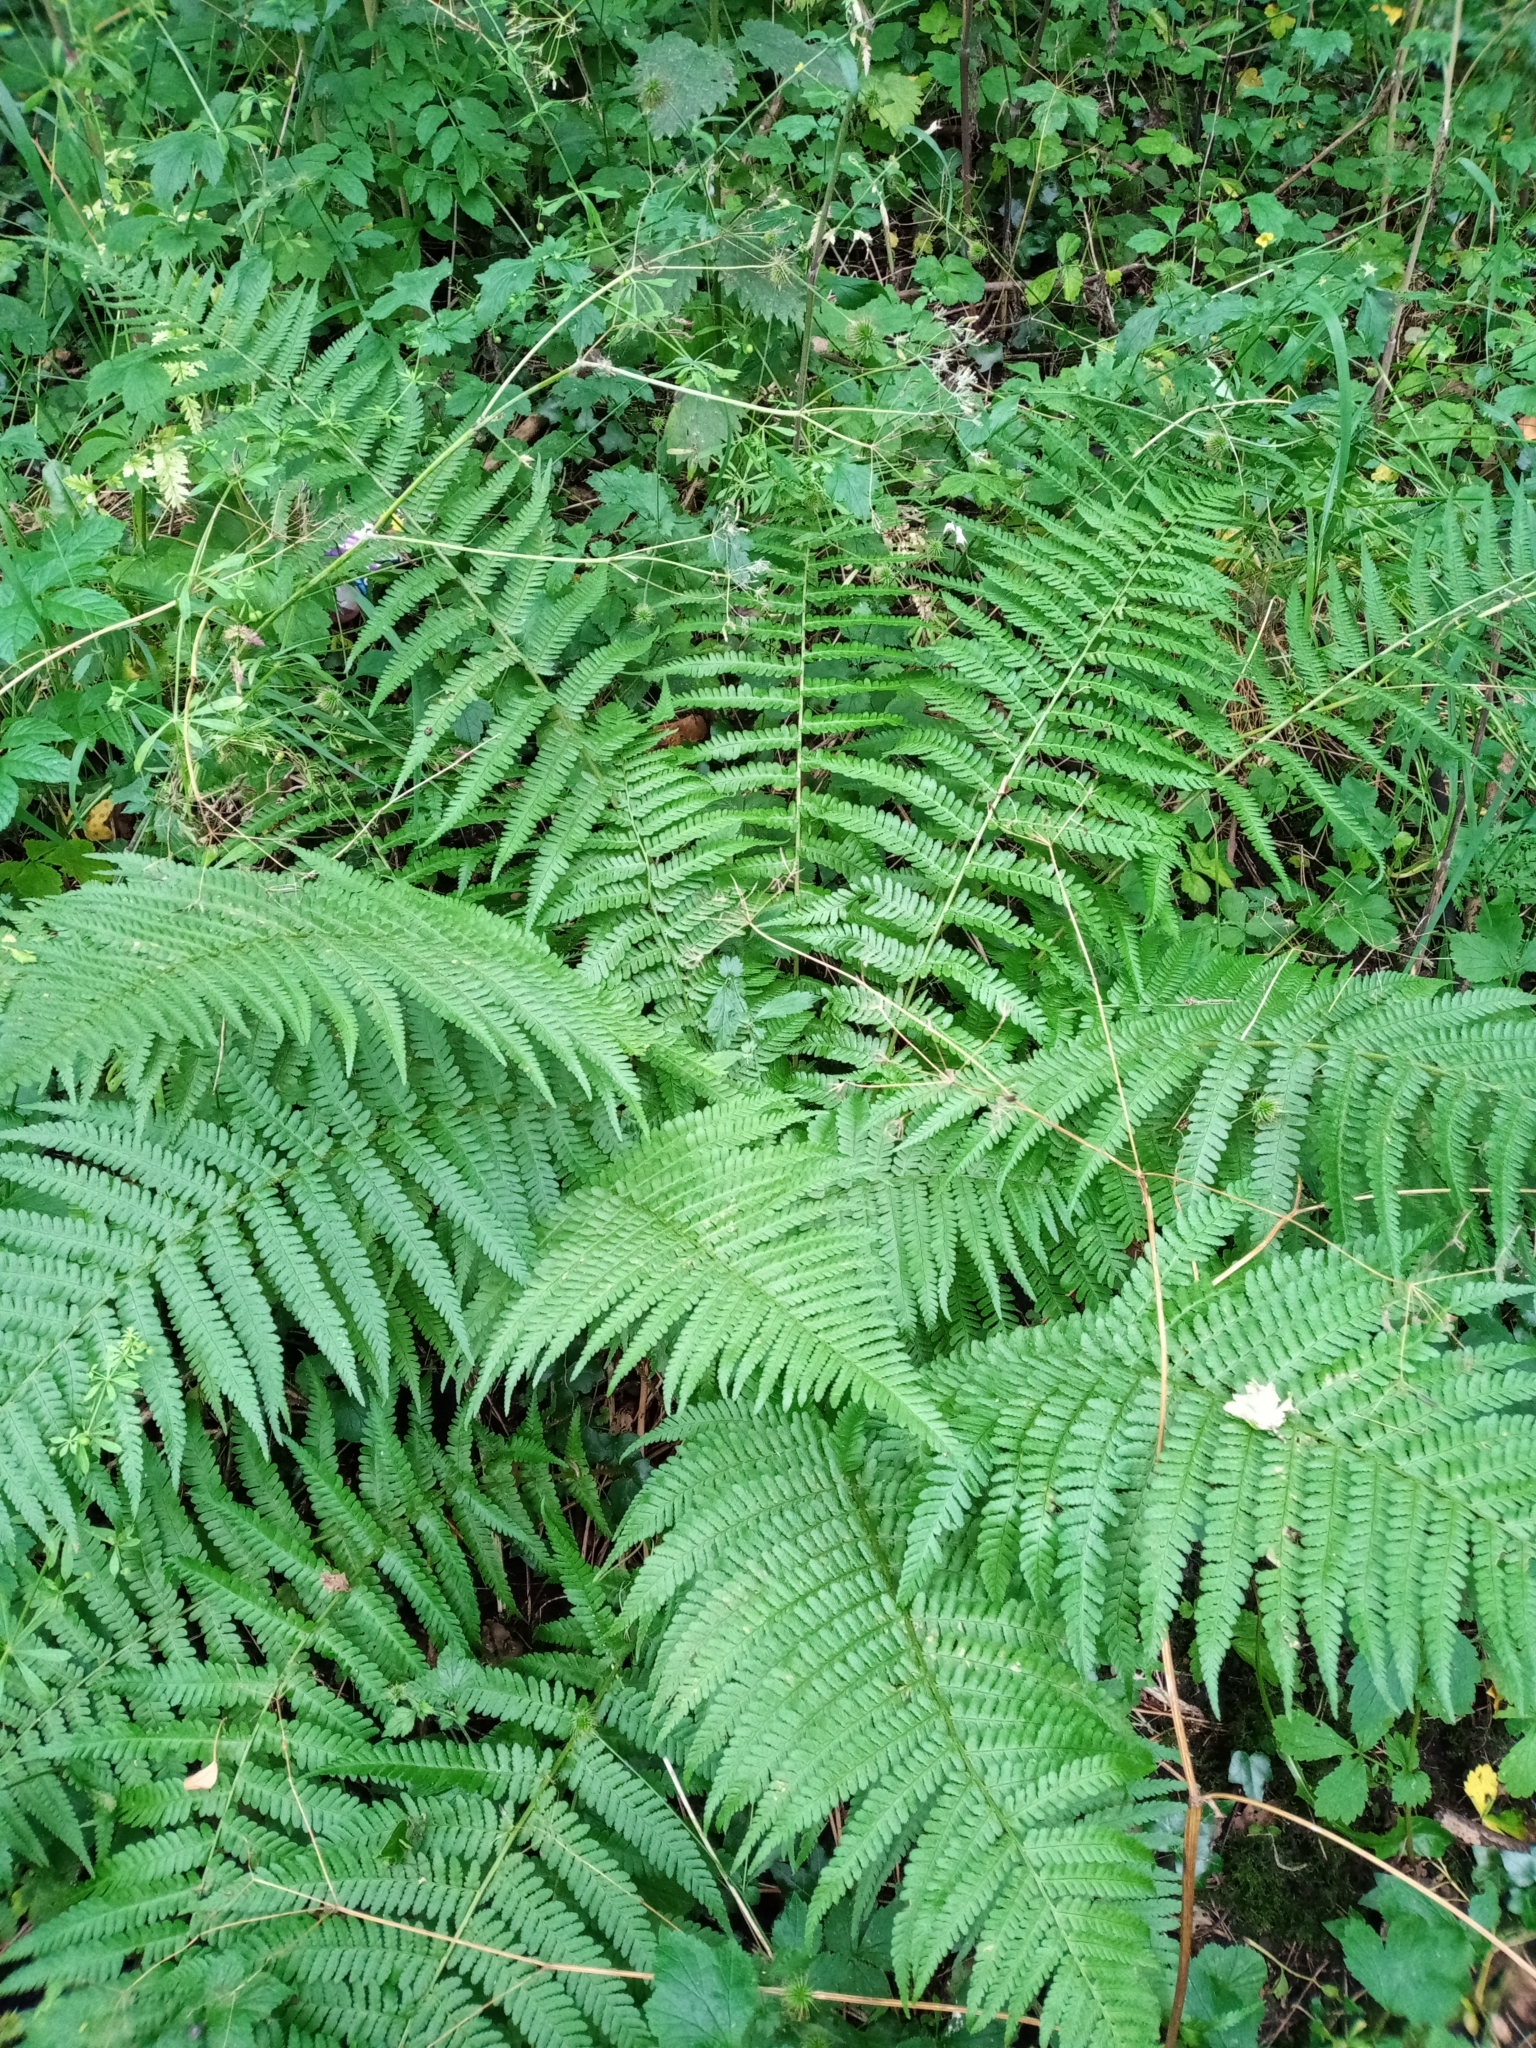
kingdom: Plantae
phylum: Tracheophyta
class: Polypodiopsida
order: Polypodiales
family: Dryopteridaceae
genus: Dryopteris
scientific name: Dryopteris filix-mas
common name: Male fern
